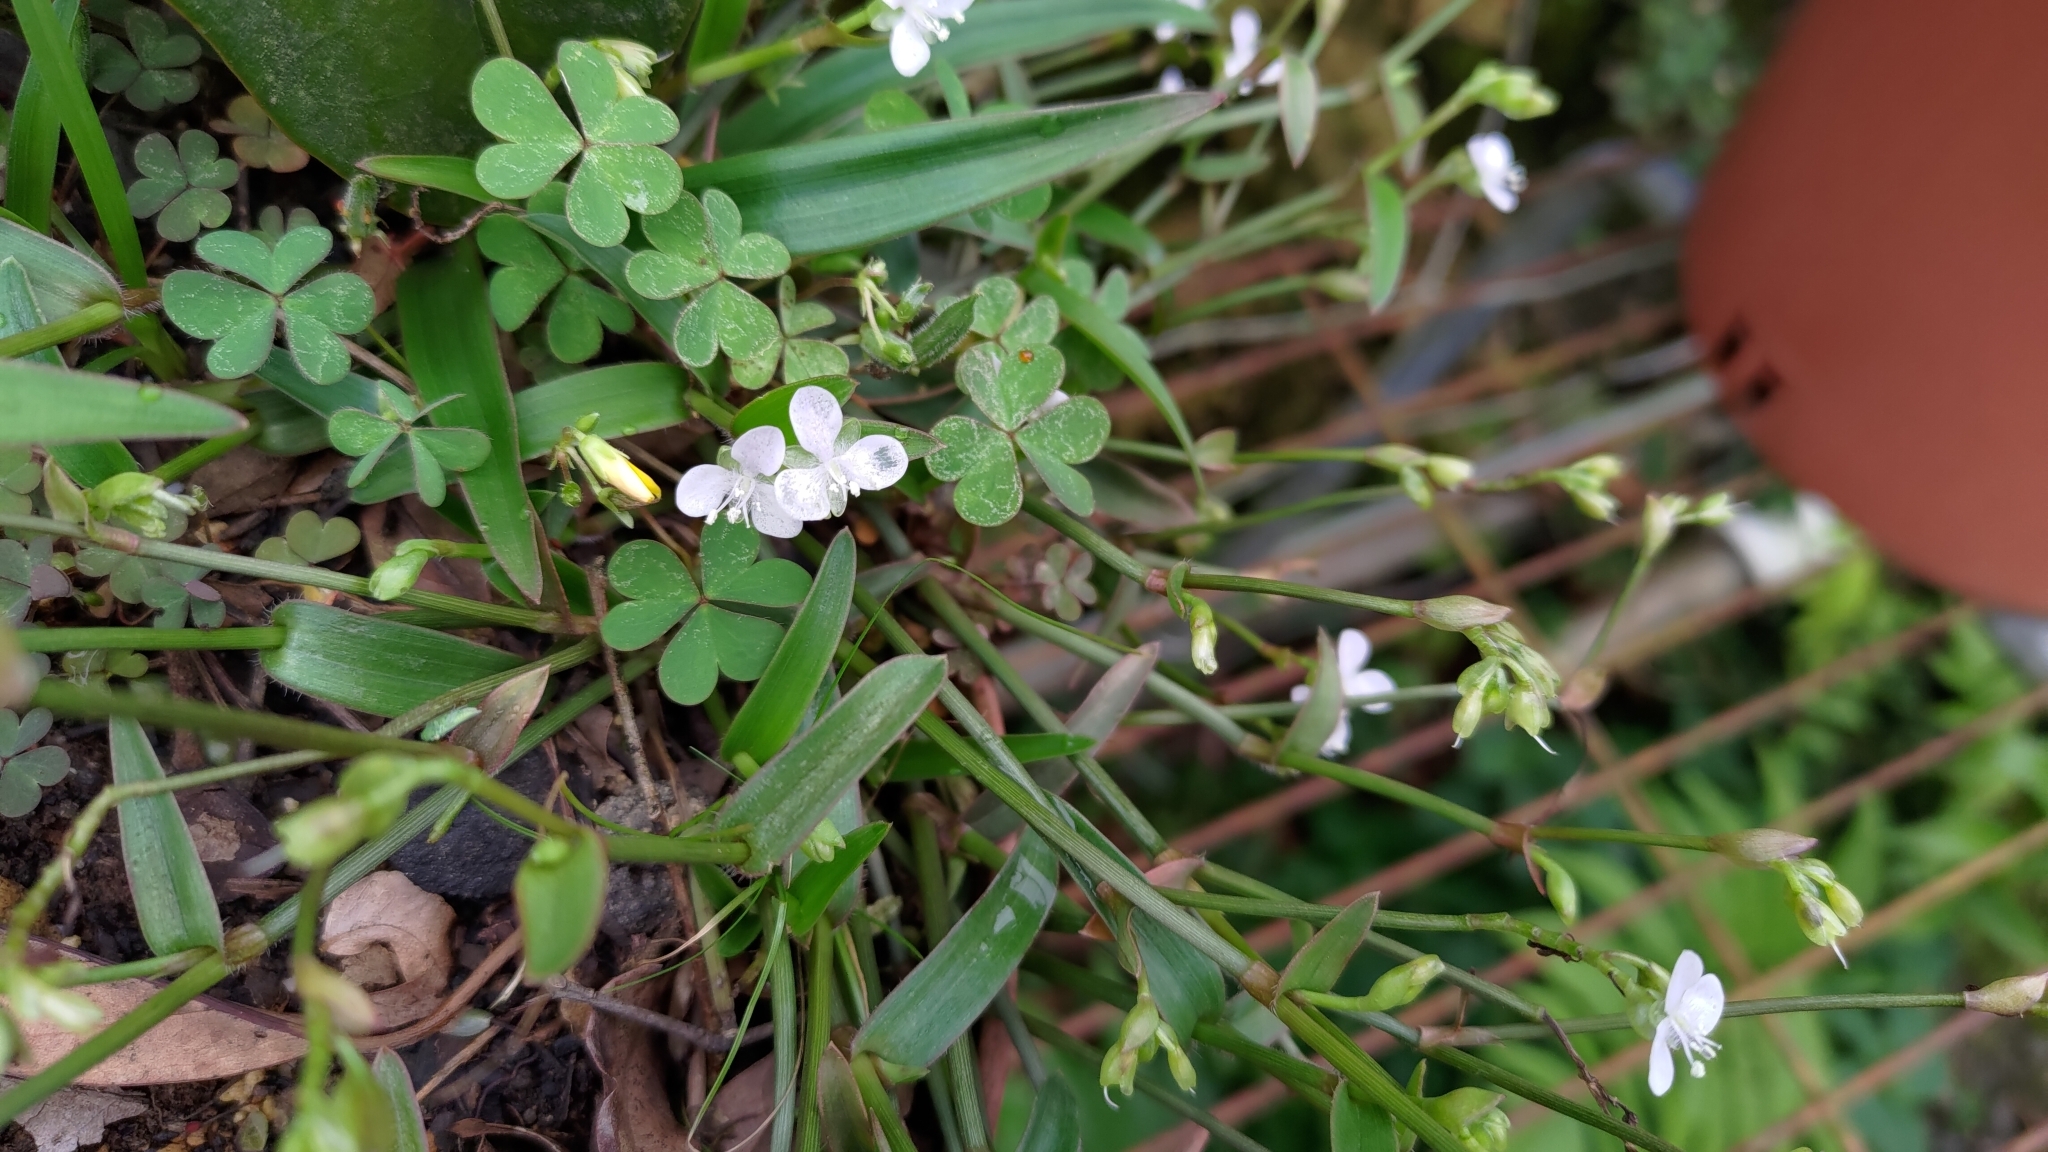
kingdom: Plantae
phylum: Tracheophyta
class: Liliopsida
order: Commelinales
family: Commelinaceae
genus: Murdannia
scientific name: Murdannia loriformis
